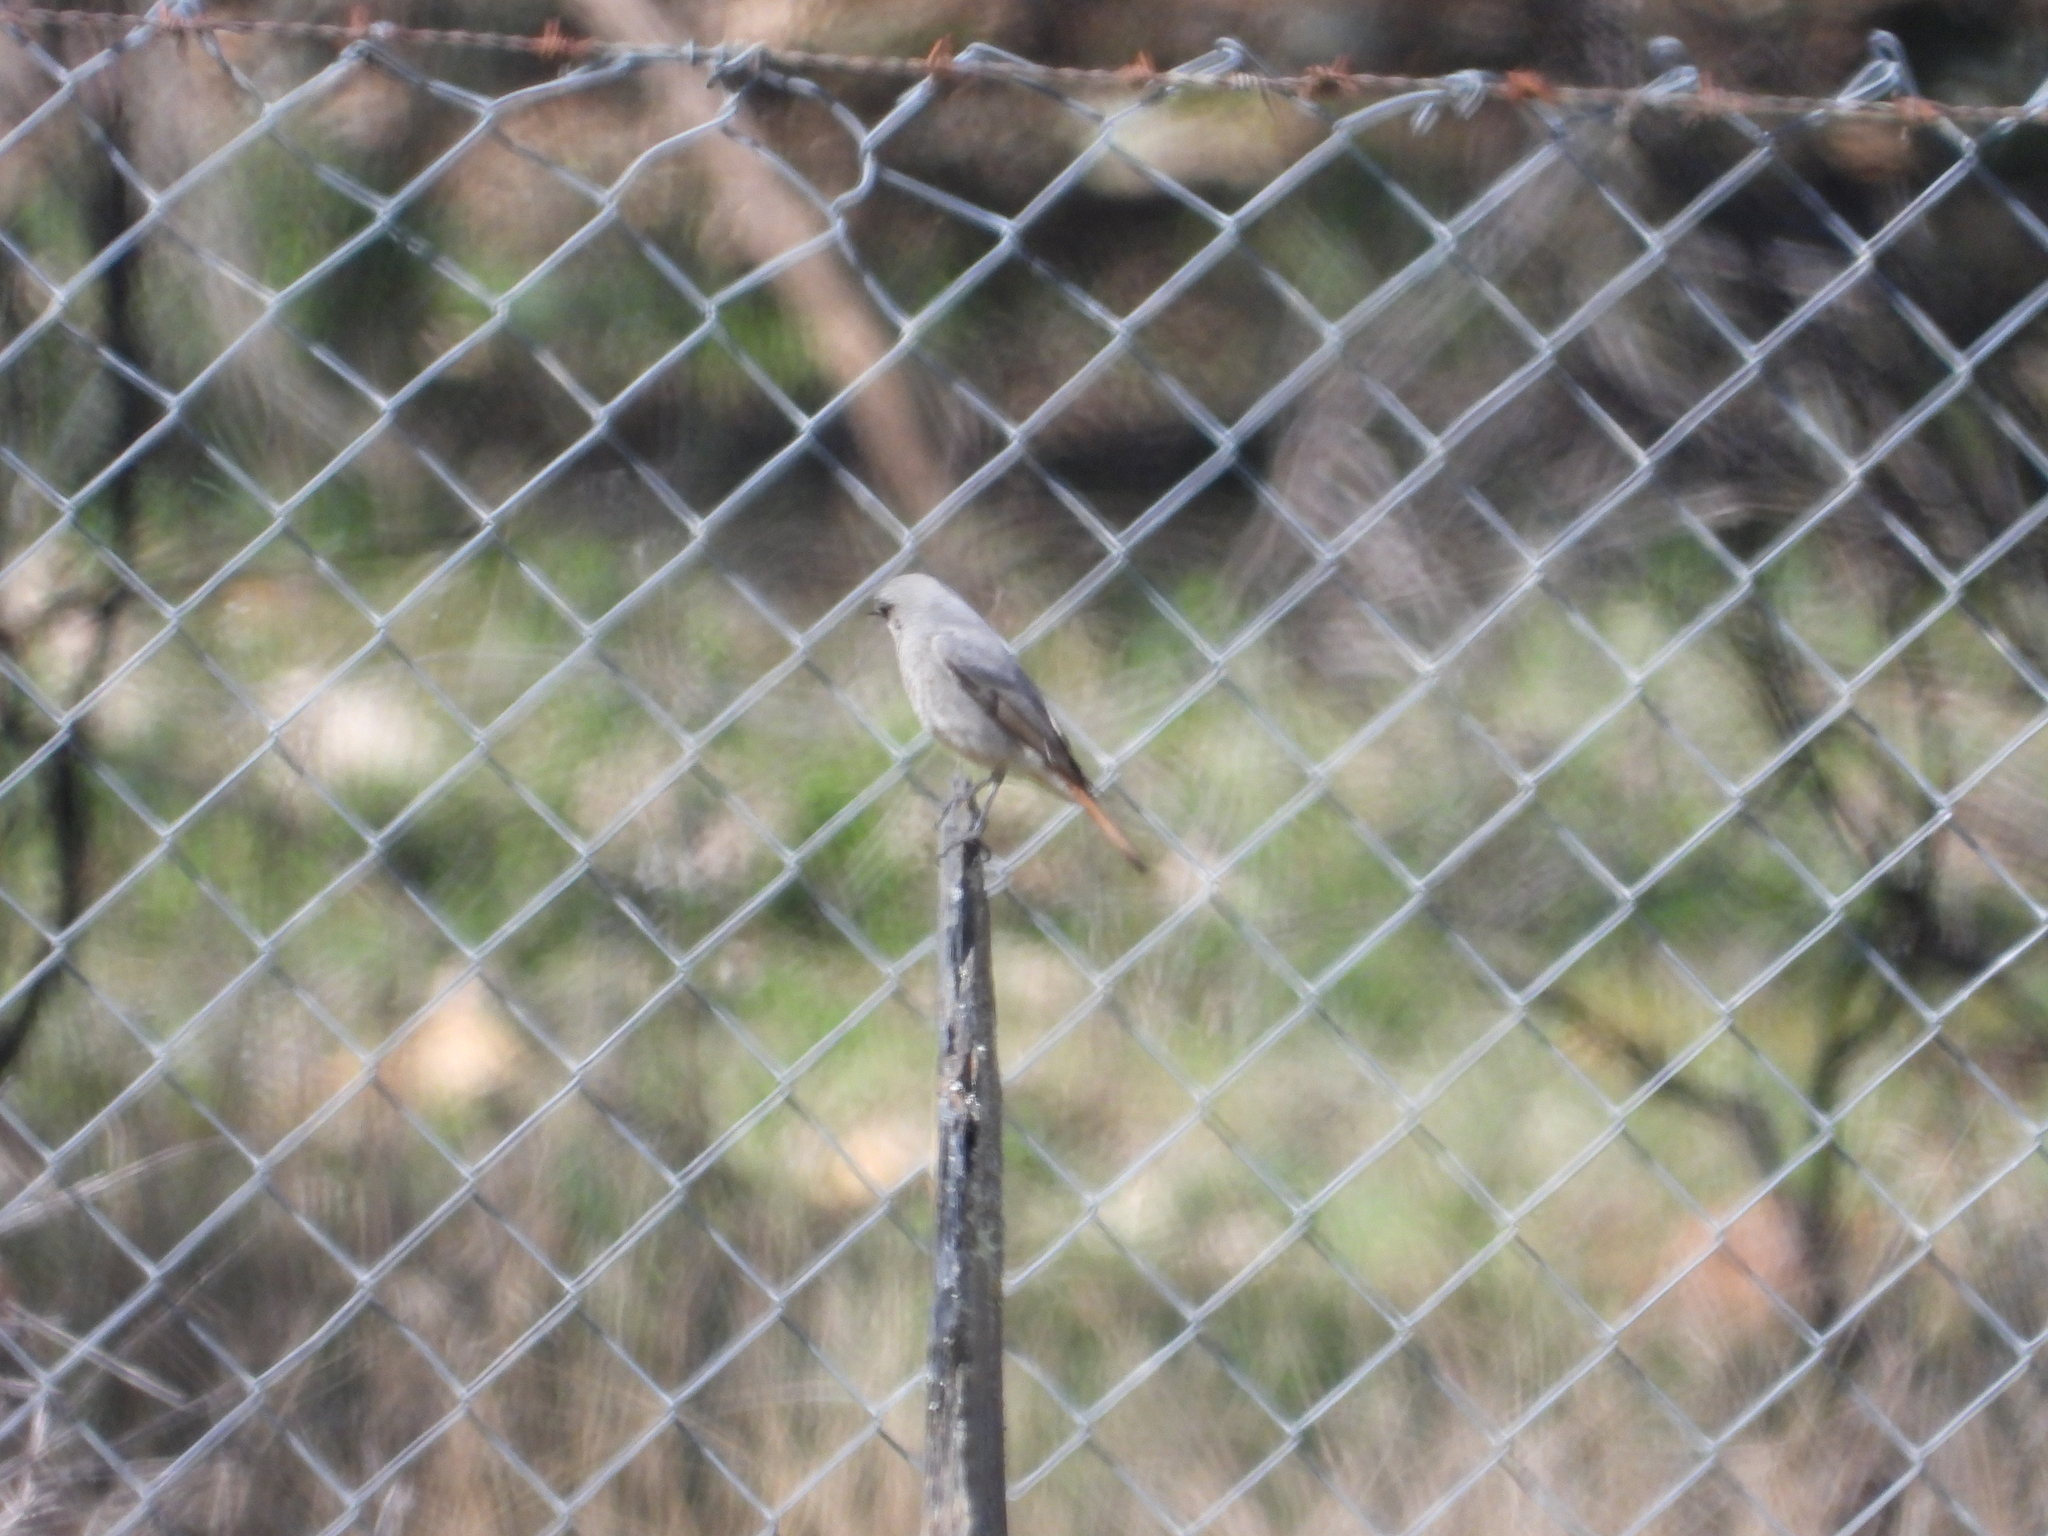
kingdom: Animalia
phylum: Chordata
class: Aves
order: Passeriformes
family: Muscicapidae
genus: Phoenicurus
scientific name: Phoenicurus ochruros
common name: Black redstart
